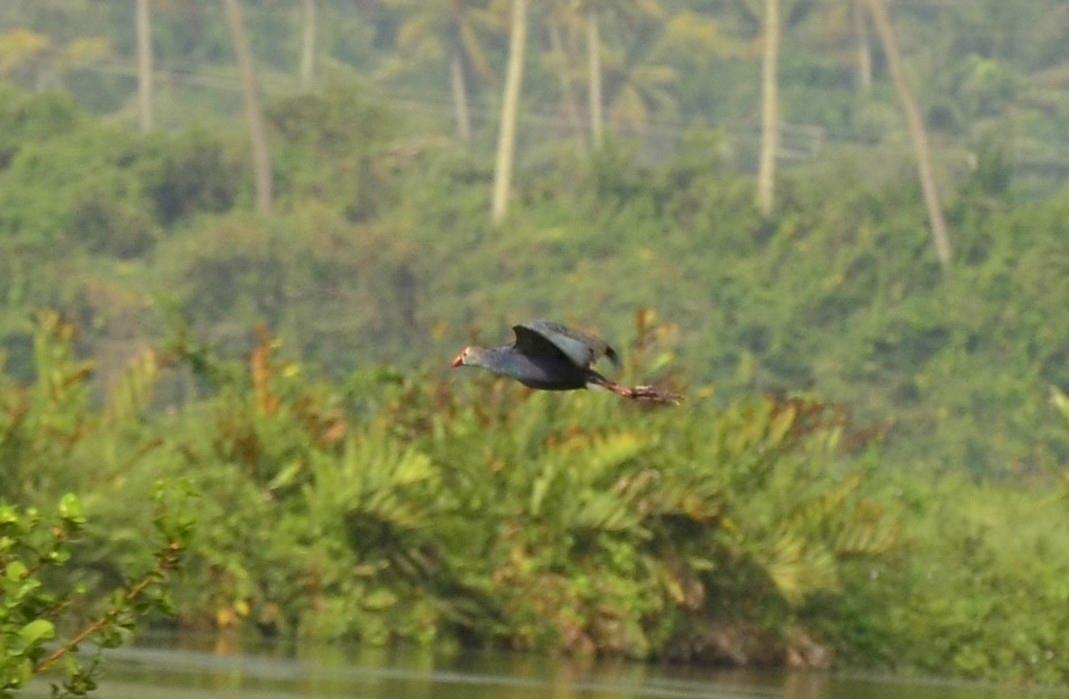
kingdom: Animalia
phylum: Chordata
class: Aves
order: Gruiformes
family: Rallidae
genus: Porphyrio
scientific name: Porphyrio porphyrio
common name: Purple swamphen
